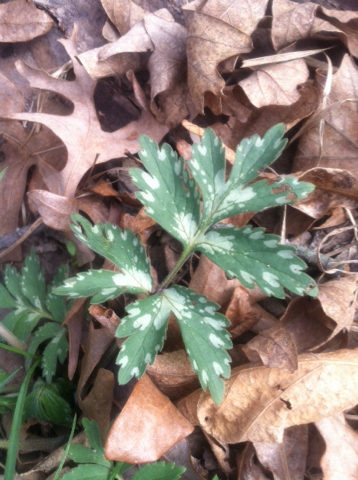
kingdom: Plantae
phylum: Tracheophyta
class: Magnoliopsida
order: Boraginales
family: Hydrophyllaceae
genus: Hydrophyllum
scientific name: Hydrophyllum virginianum
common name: Virginia waterleaf
